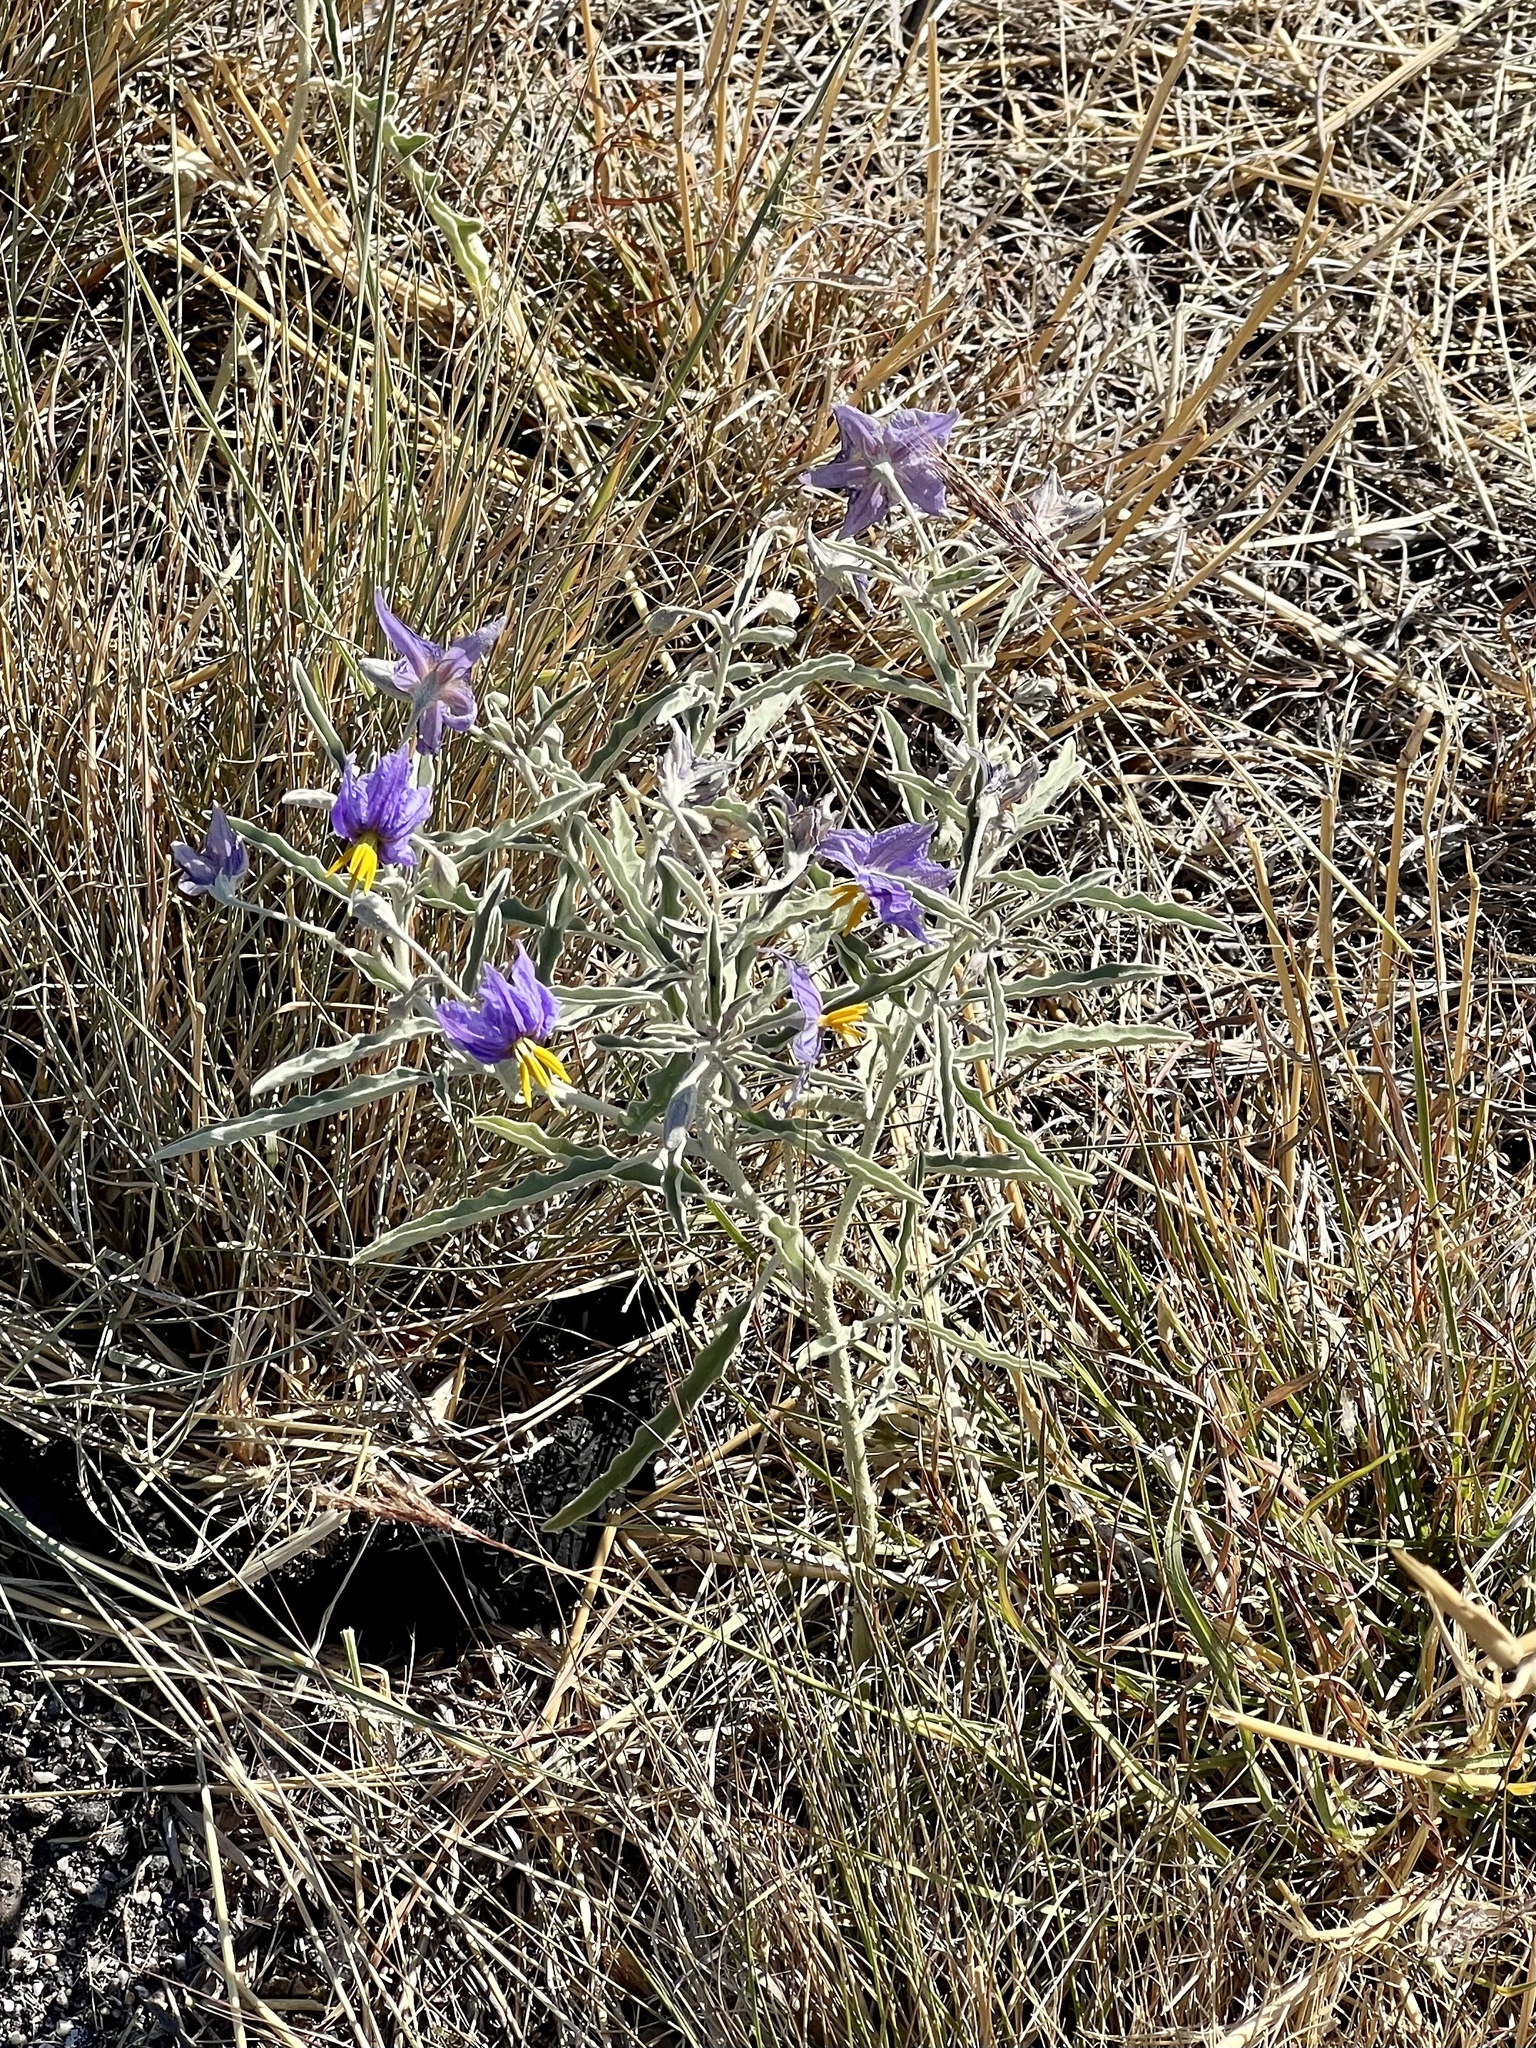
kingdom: Plantae
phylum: Tracheophyta
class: Magnoliopsida
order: Solanales
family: Solanaceae
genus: Solanum
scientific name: Solanum elaeagnifolium
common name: Silverleaf nightshade
